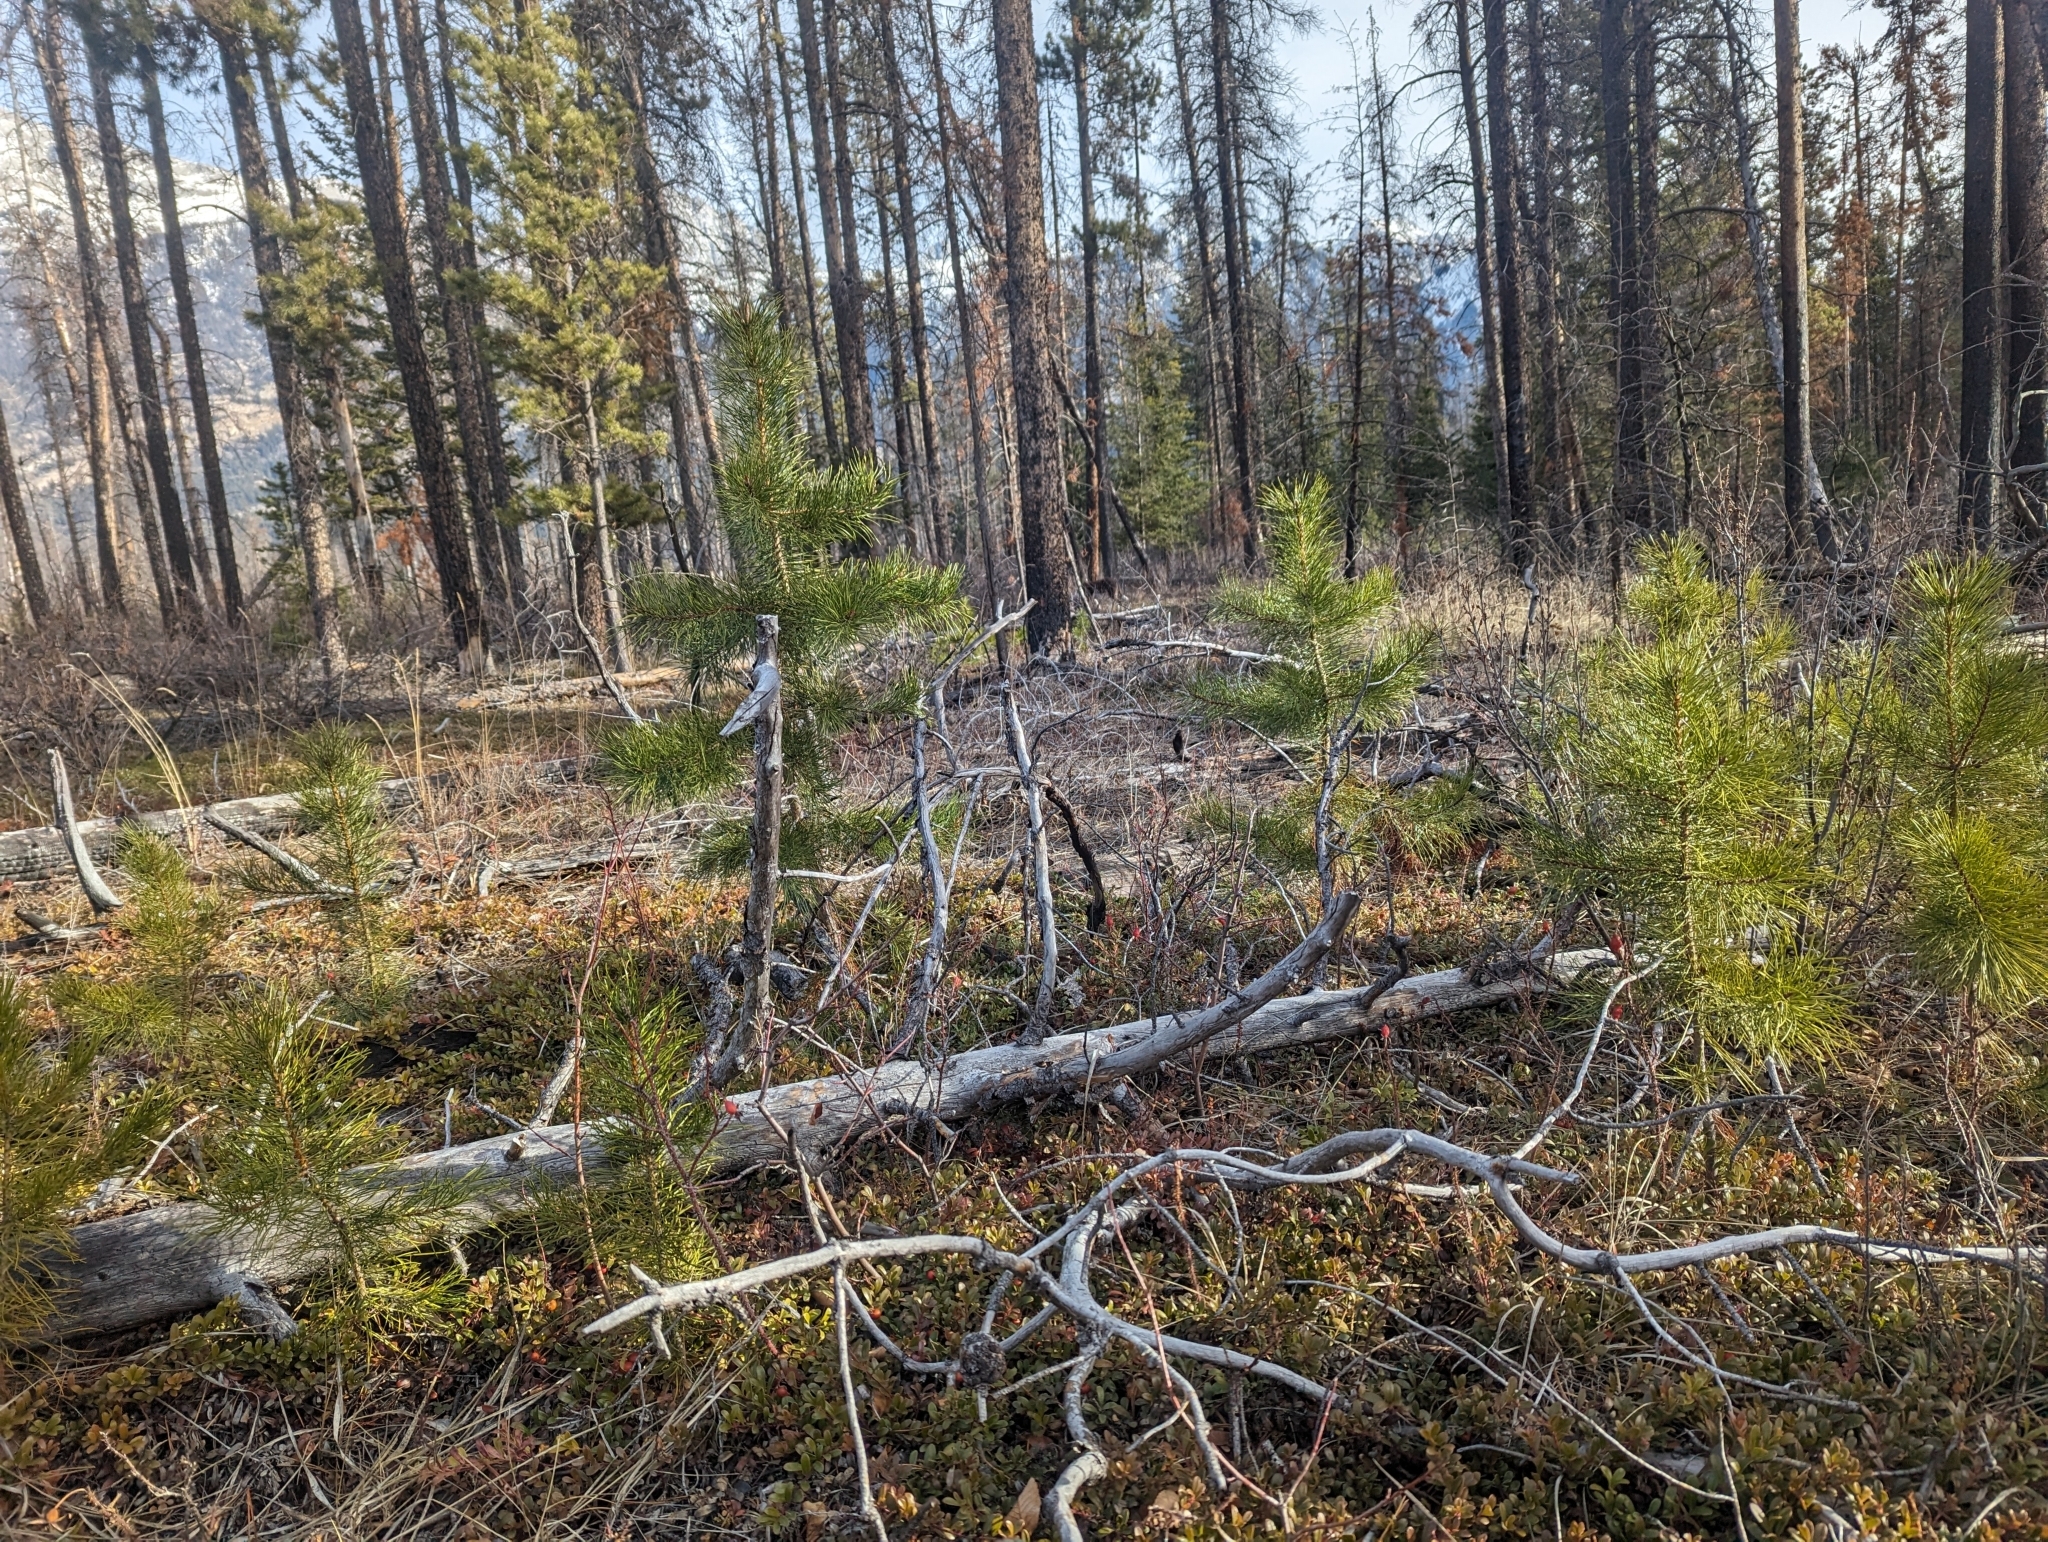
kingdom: Plantae
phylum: Tracheophyta
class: Pinopsida
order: Pinales
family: Pinaceae
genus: Pinus
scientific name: Pinus contorta
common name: Lodgepole pine
